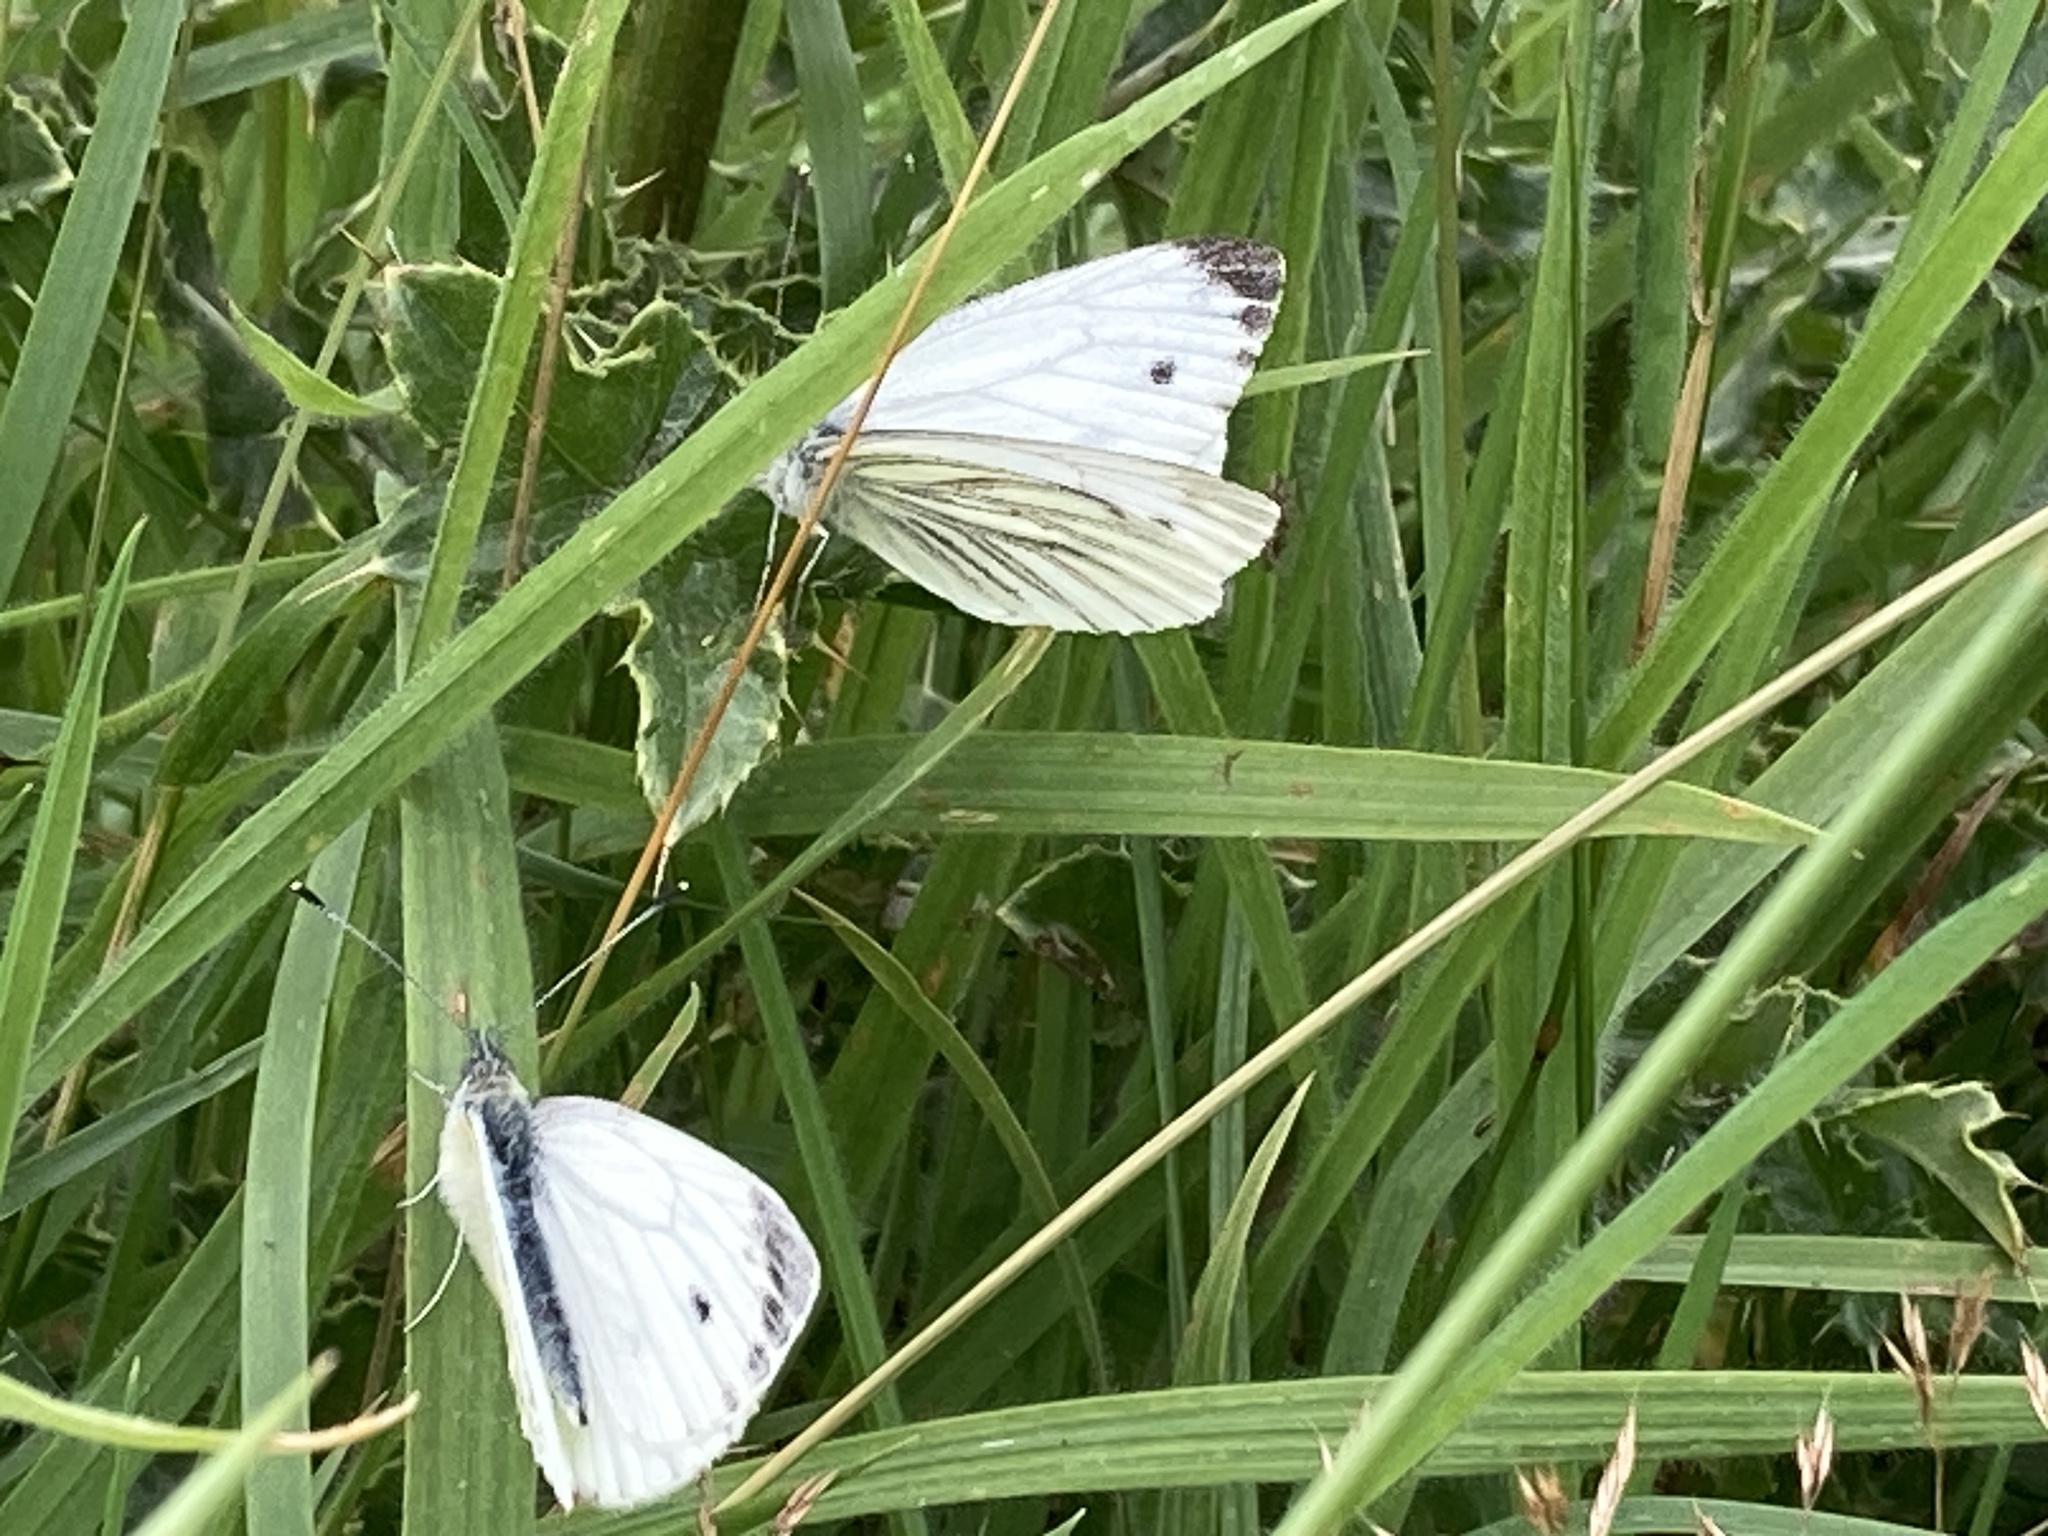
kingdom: Animalia
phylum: Arthropoda
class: Insecta
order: Lepidoptera
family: Pieridae
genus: Pieris
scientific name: Pieris napi
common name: Green-veined white
